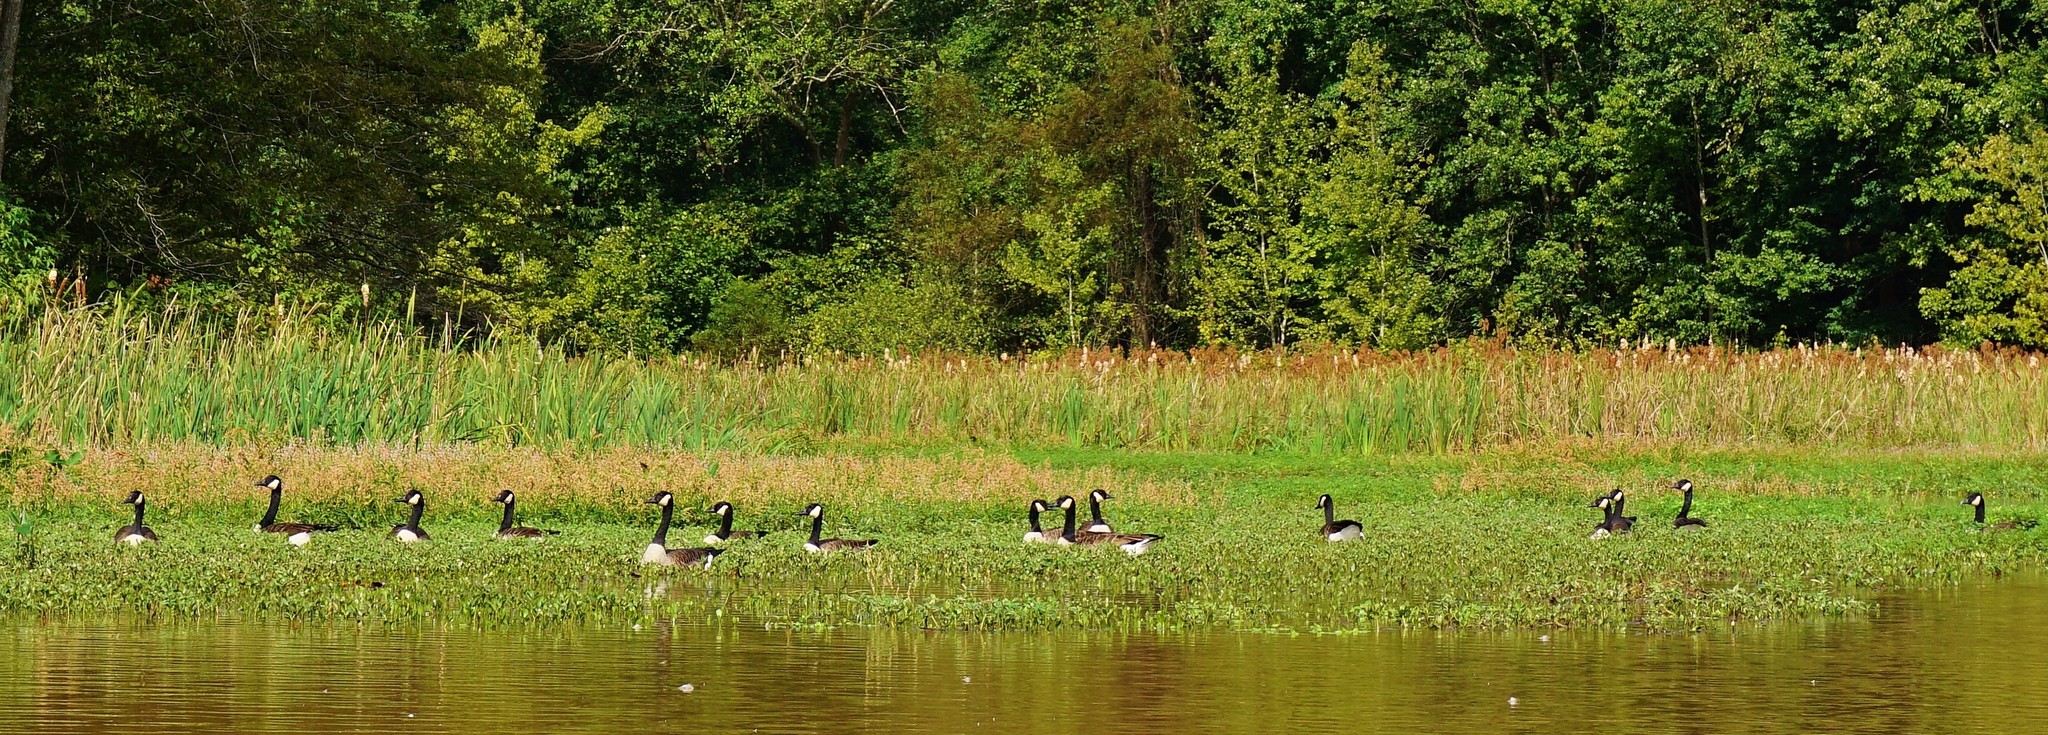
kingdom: Animalia
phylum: Chordata
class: Aves
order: Anseriformes
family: Anatidae
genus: Branta
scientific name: Branta canadensis
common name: Canada goose
